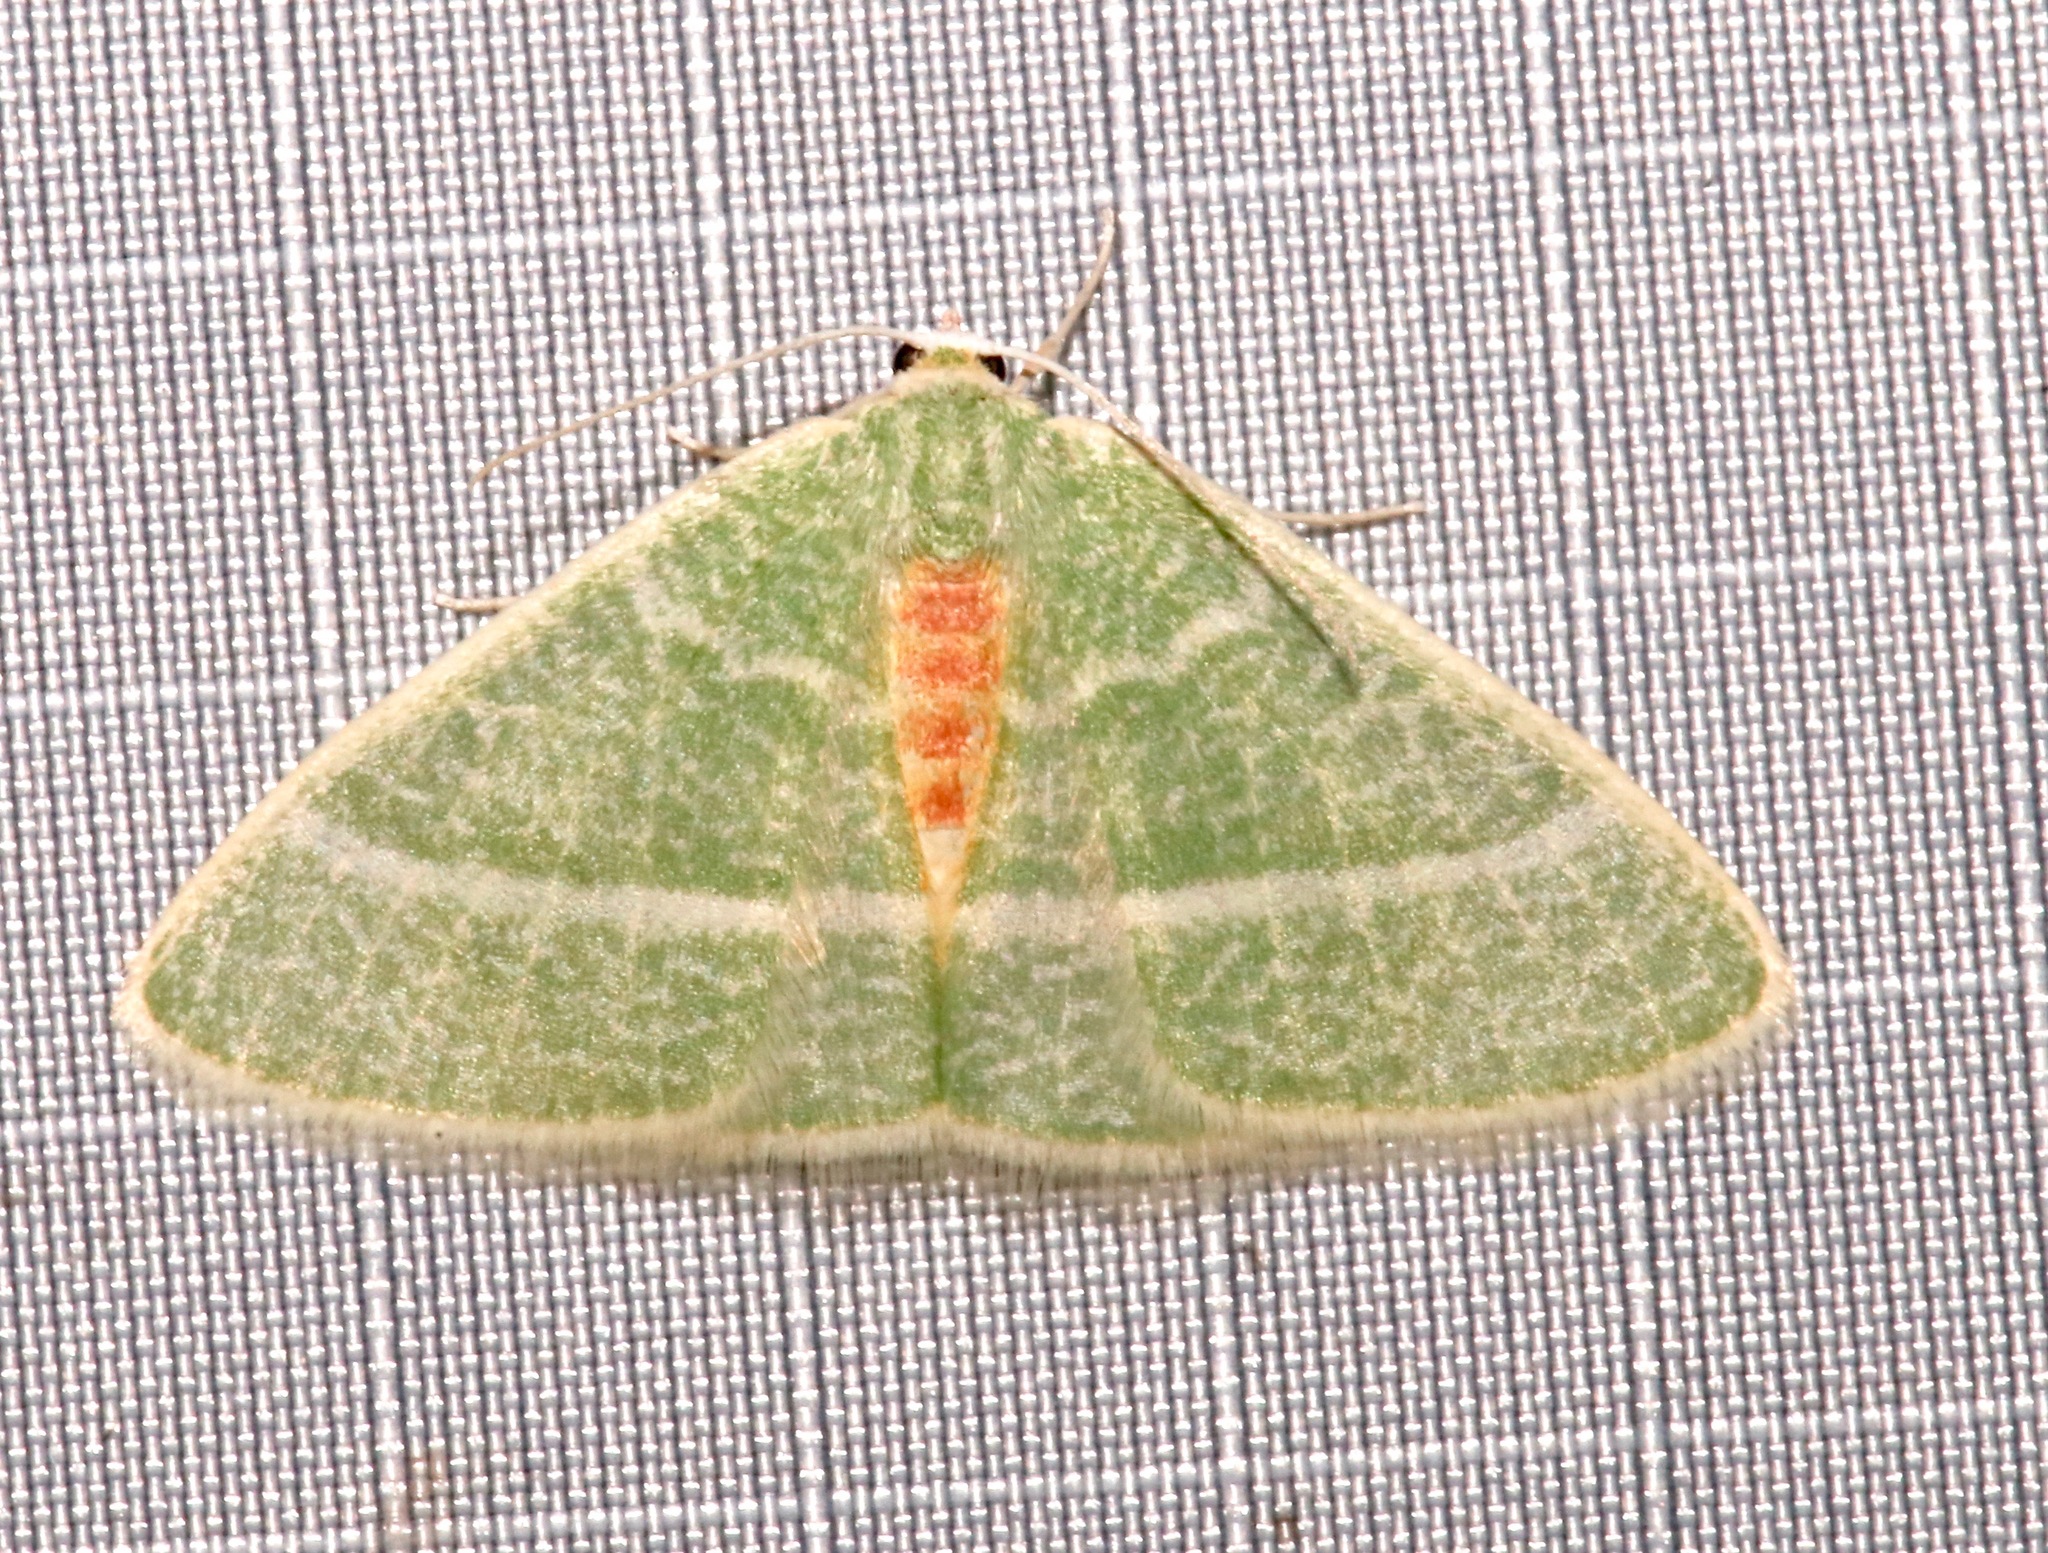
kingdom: Animalia
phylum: Arthropoda
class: Insecta
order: Lepidoptera
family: Geometridae
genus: Nemoria
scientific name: Nemoria arizonaria
